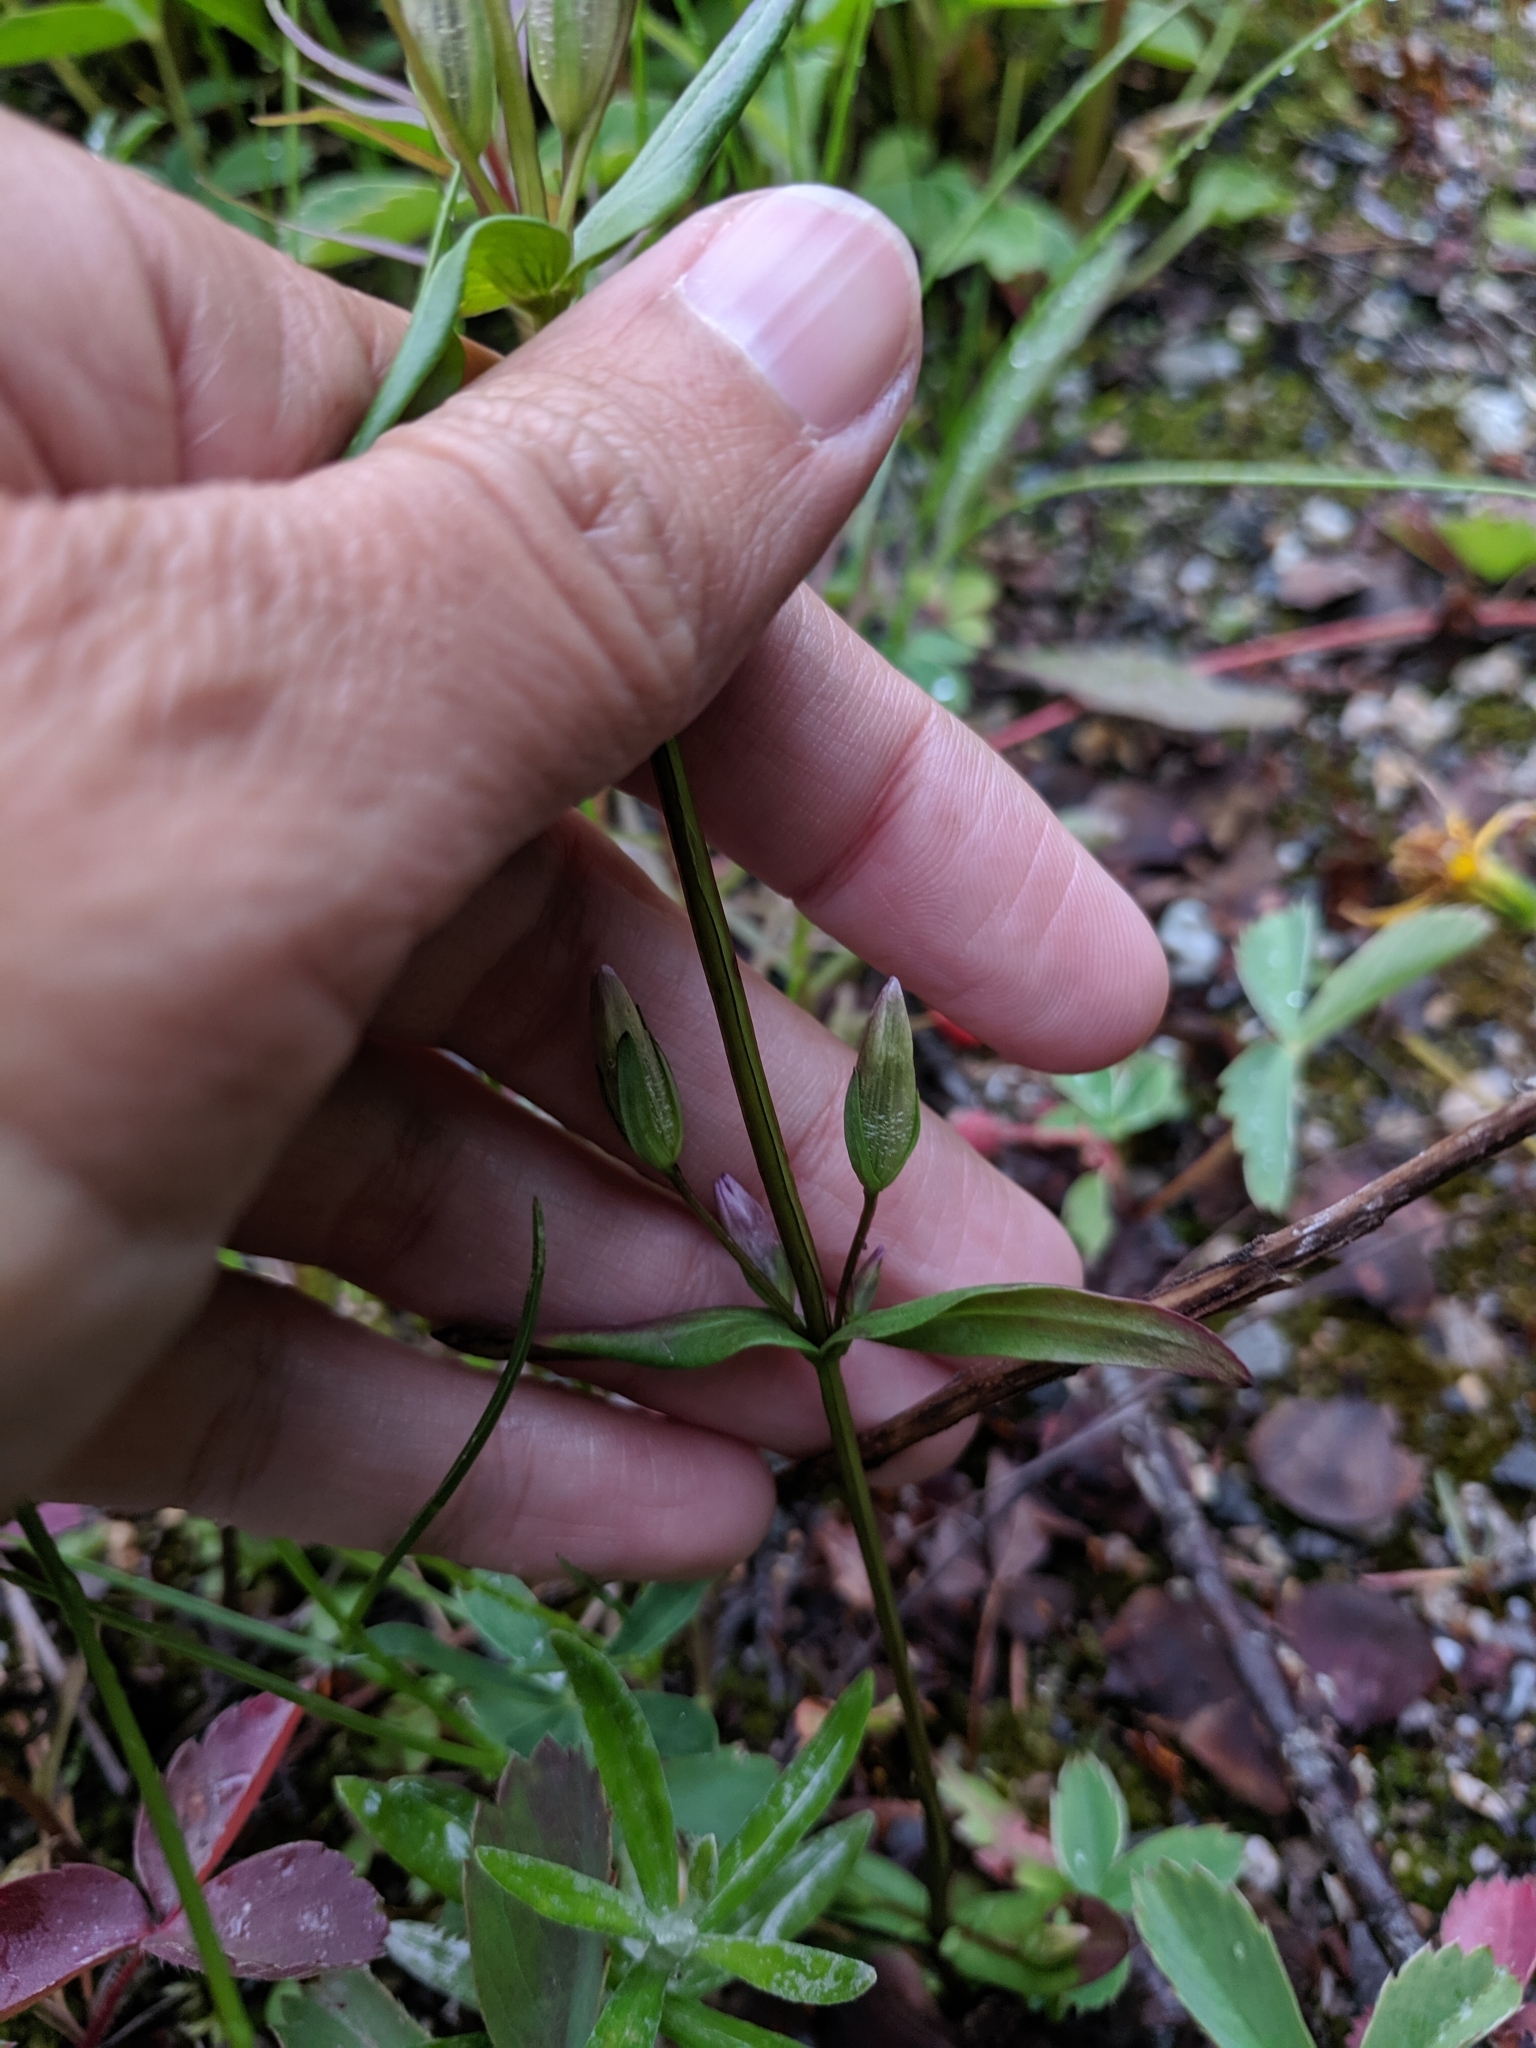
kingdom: Plantae
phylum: Tracheophyta
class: Magnoliopsida
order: Gentianales
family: Gentianaceae
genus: Gentianella
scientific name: Gentianella amarella
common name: Autumn gentian
